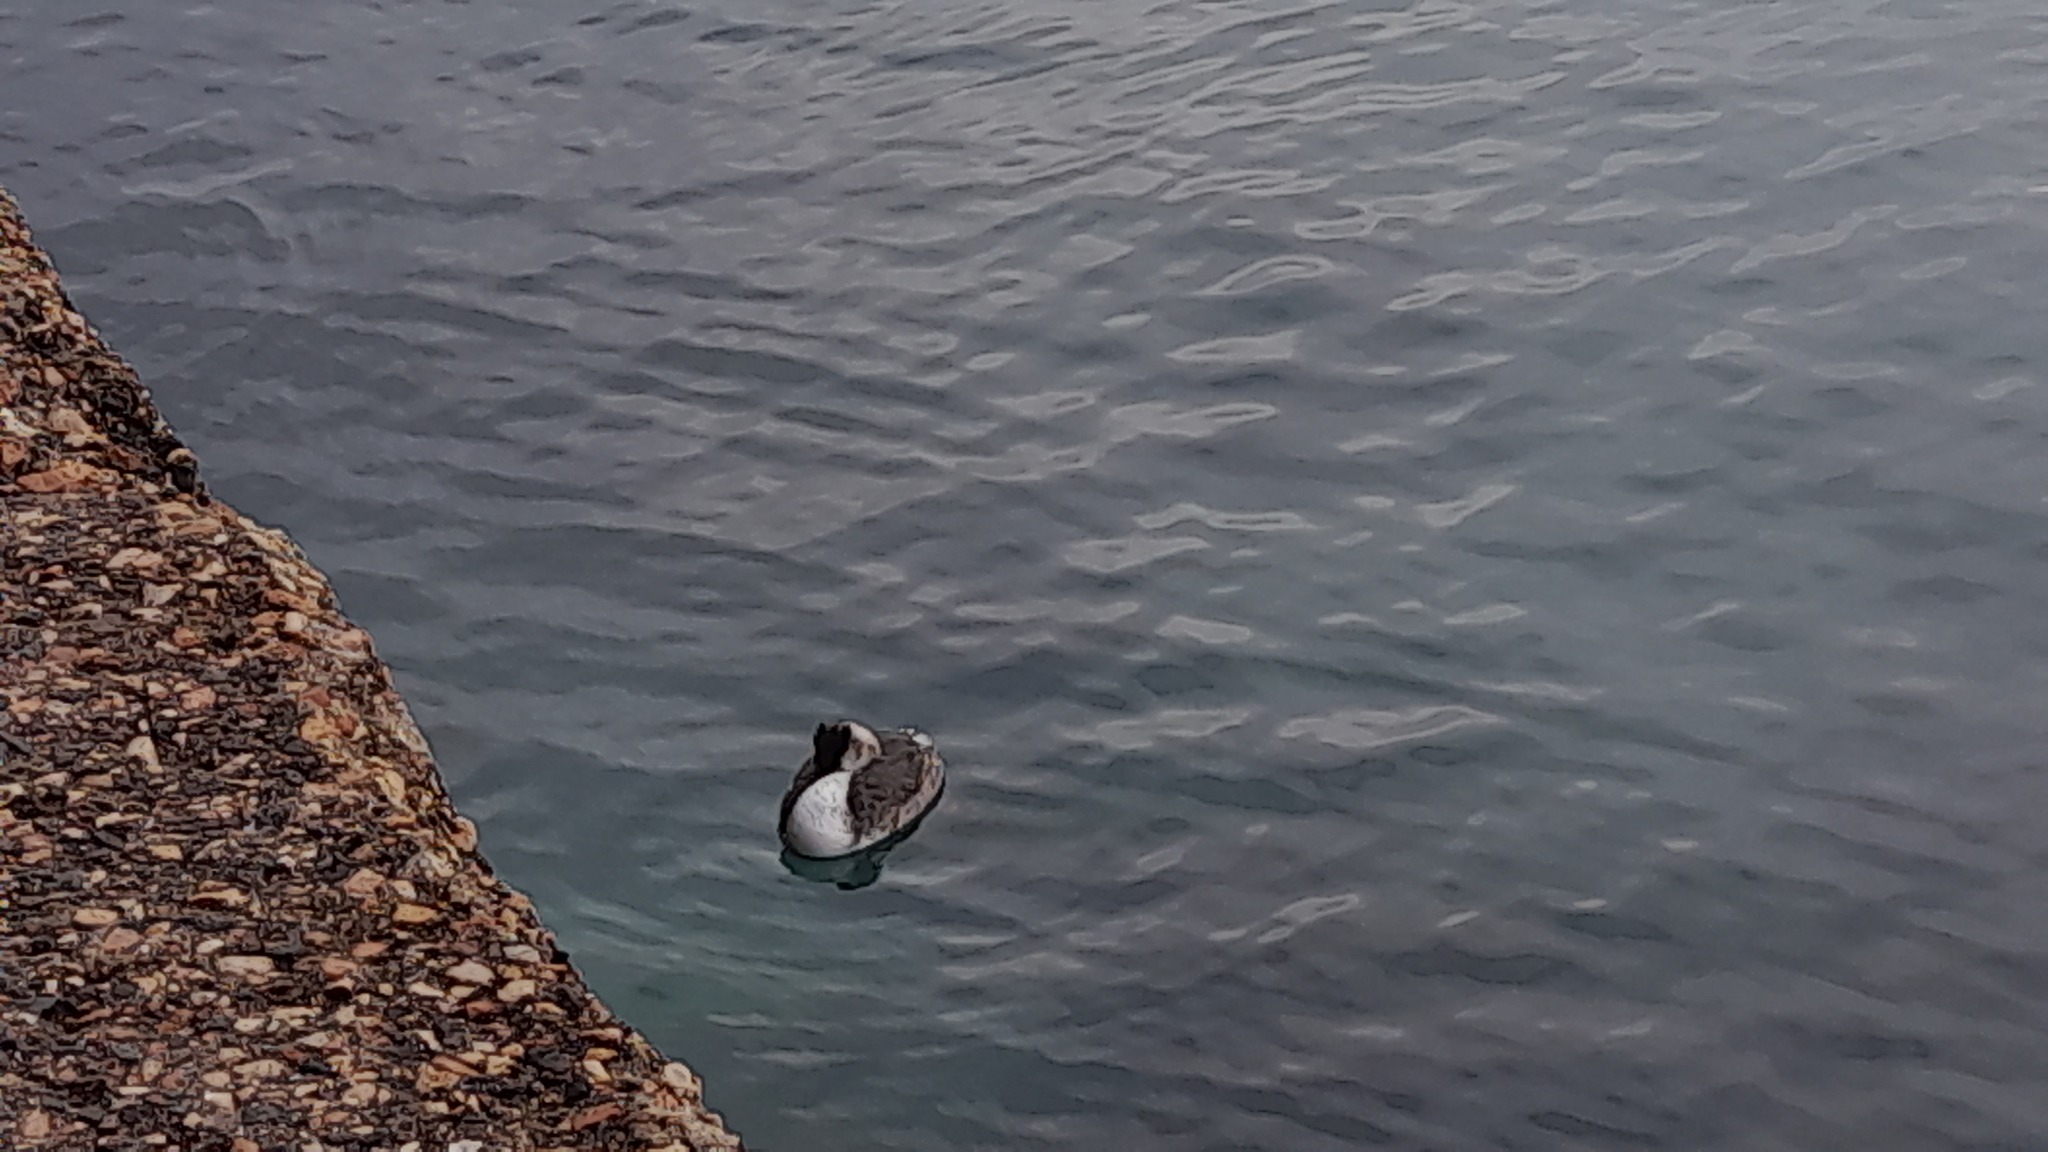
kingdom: Animalia
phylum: Chordata
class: Aves
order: Podicipediformes
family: Podicipedidae
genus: Podiceps
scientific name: Podiceps cristatus
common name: Great crested grebe
